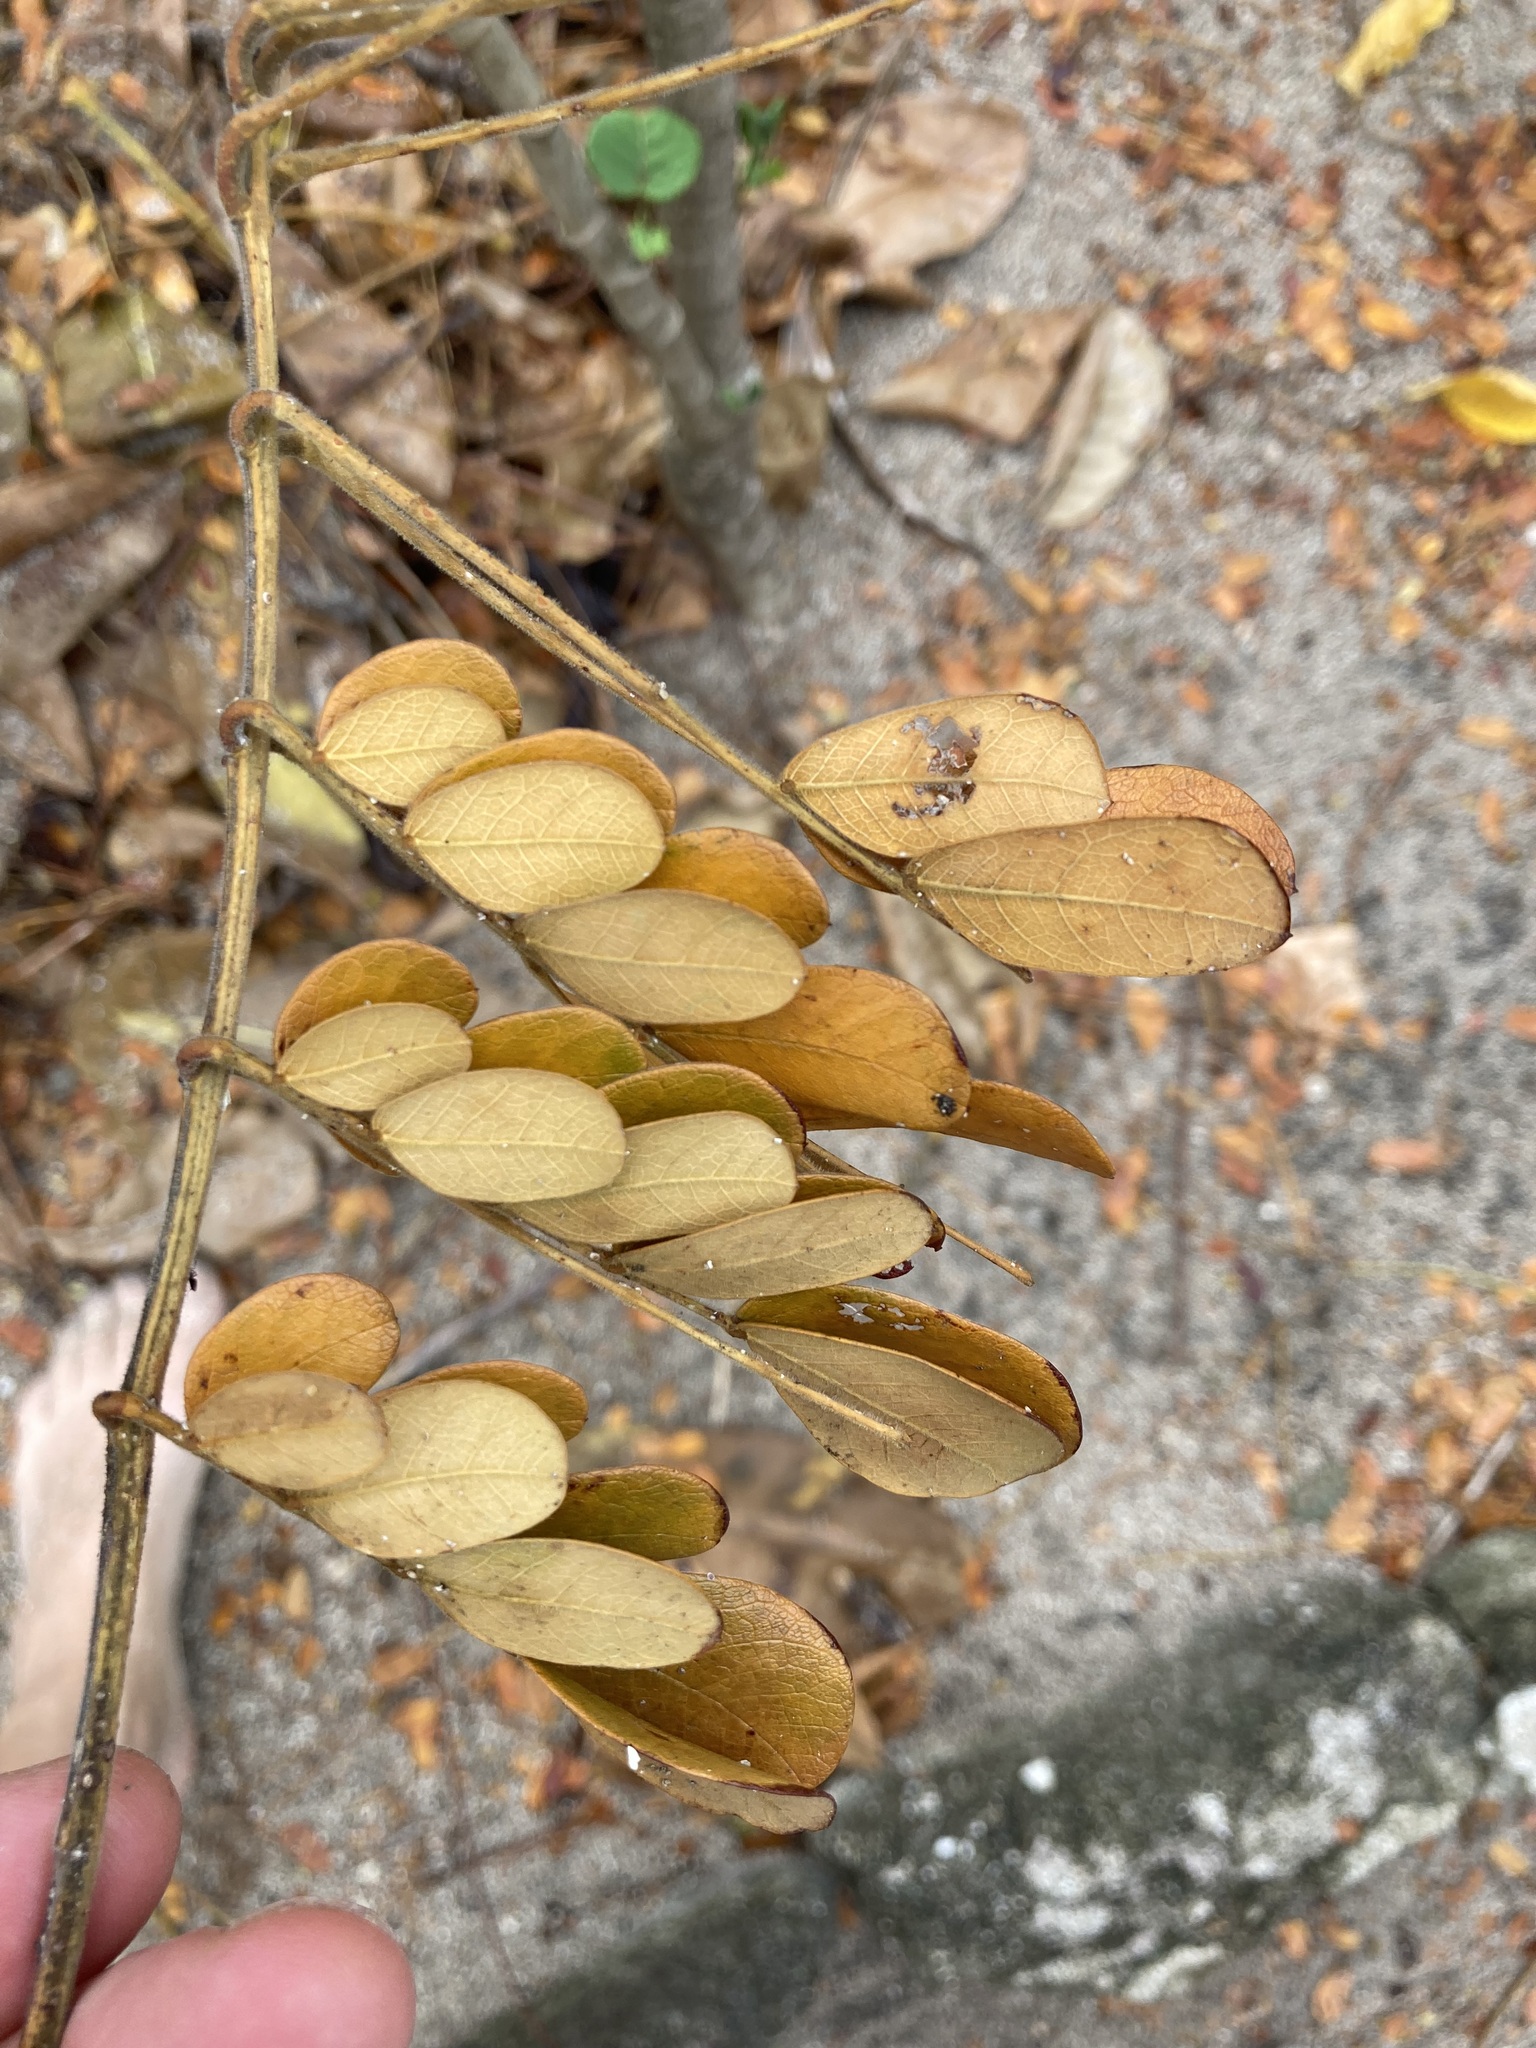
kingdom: Plantae
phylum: Tracheophyta
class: Magnoliopsida
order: Fabales
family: Fabaceae
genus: Samanea
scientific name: Samanea saman
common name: Raintree
